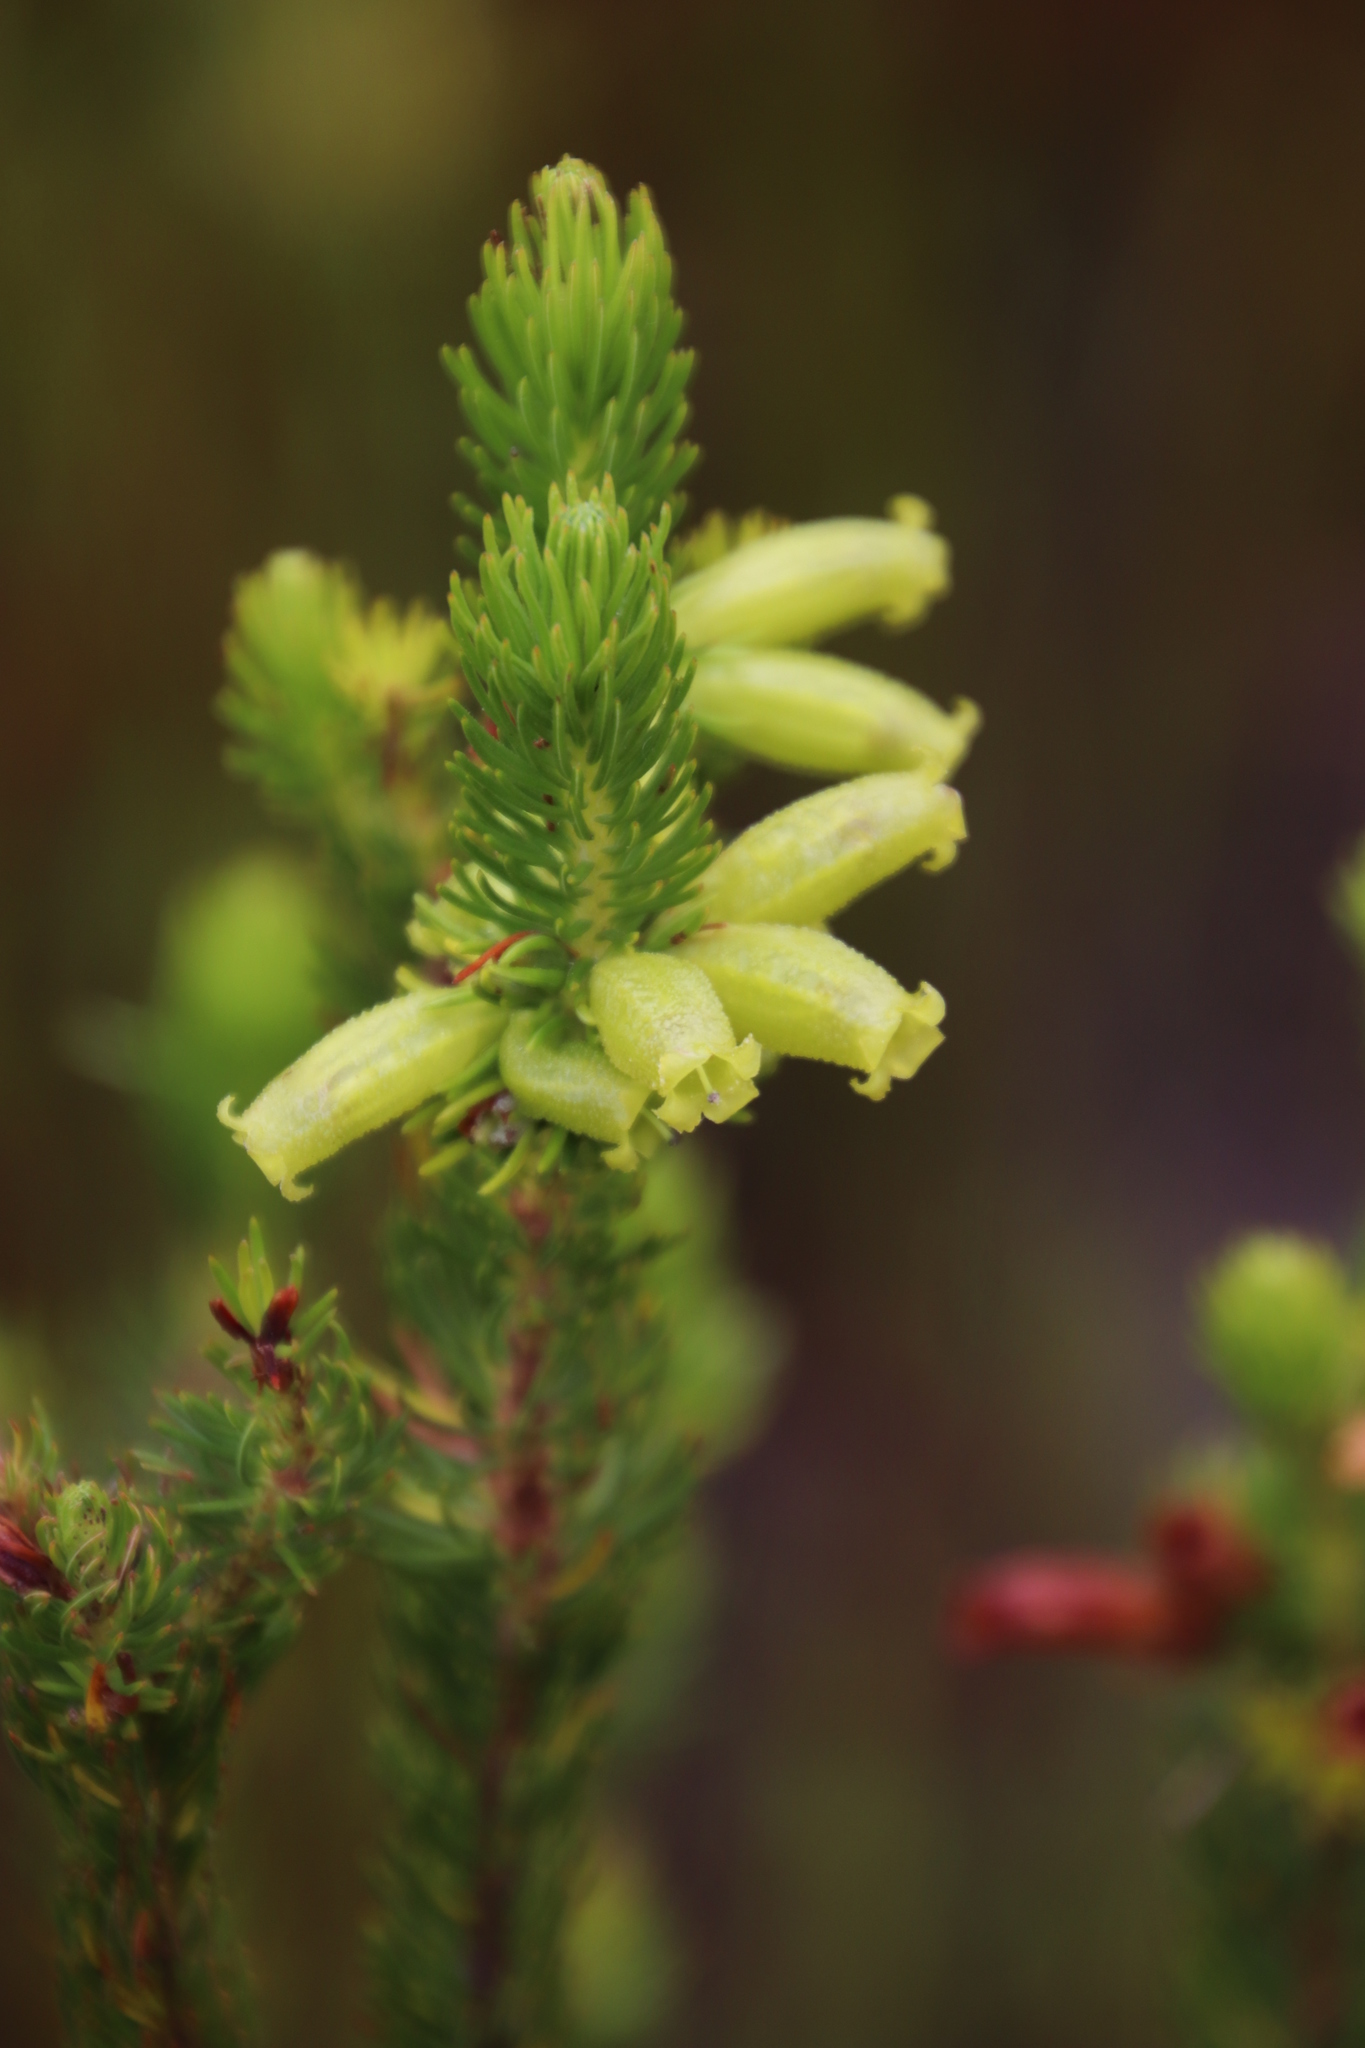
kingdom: Plantae
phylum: Tracheophyta
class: Magnoliopsida
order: Ericales
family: Ericaceae
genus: Erica
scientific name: Erica viscaria
